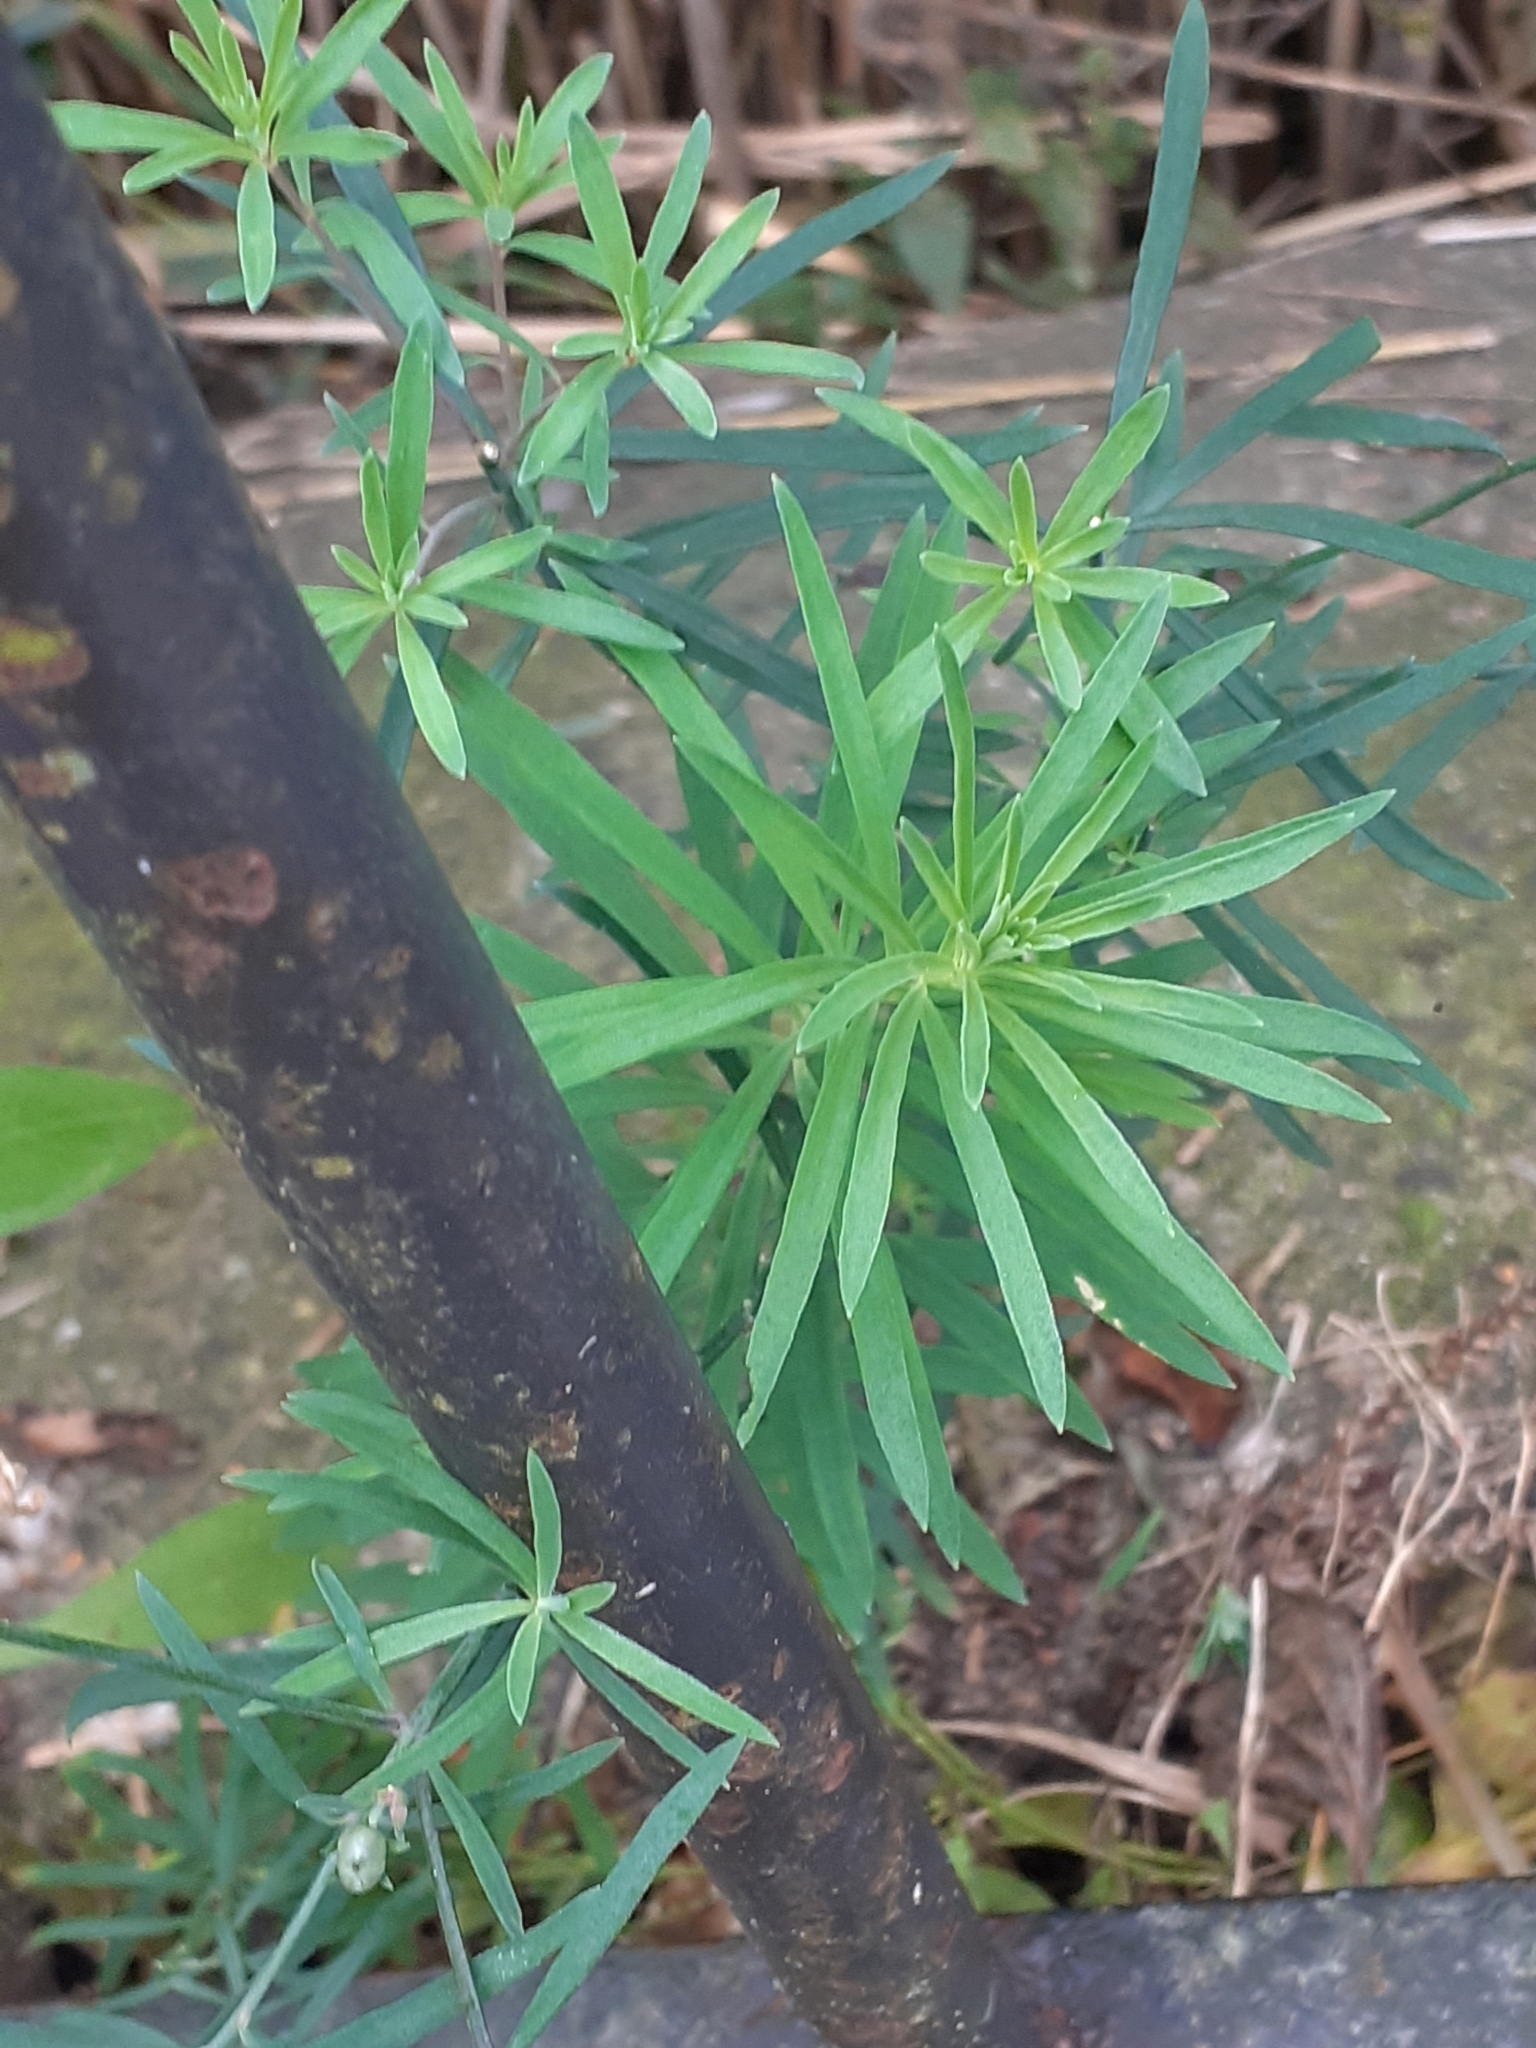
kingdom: Plantae
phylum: Tracheophyta
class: Magnoliopsida
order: Lamiales
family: Plantaginaceae
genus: Linaria
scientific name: Linaria purpurea
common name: Purple toadflax
